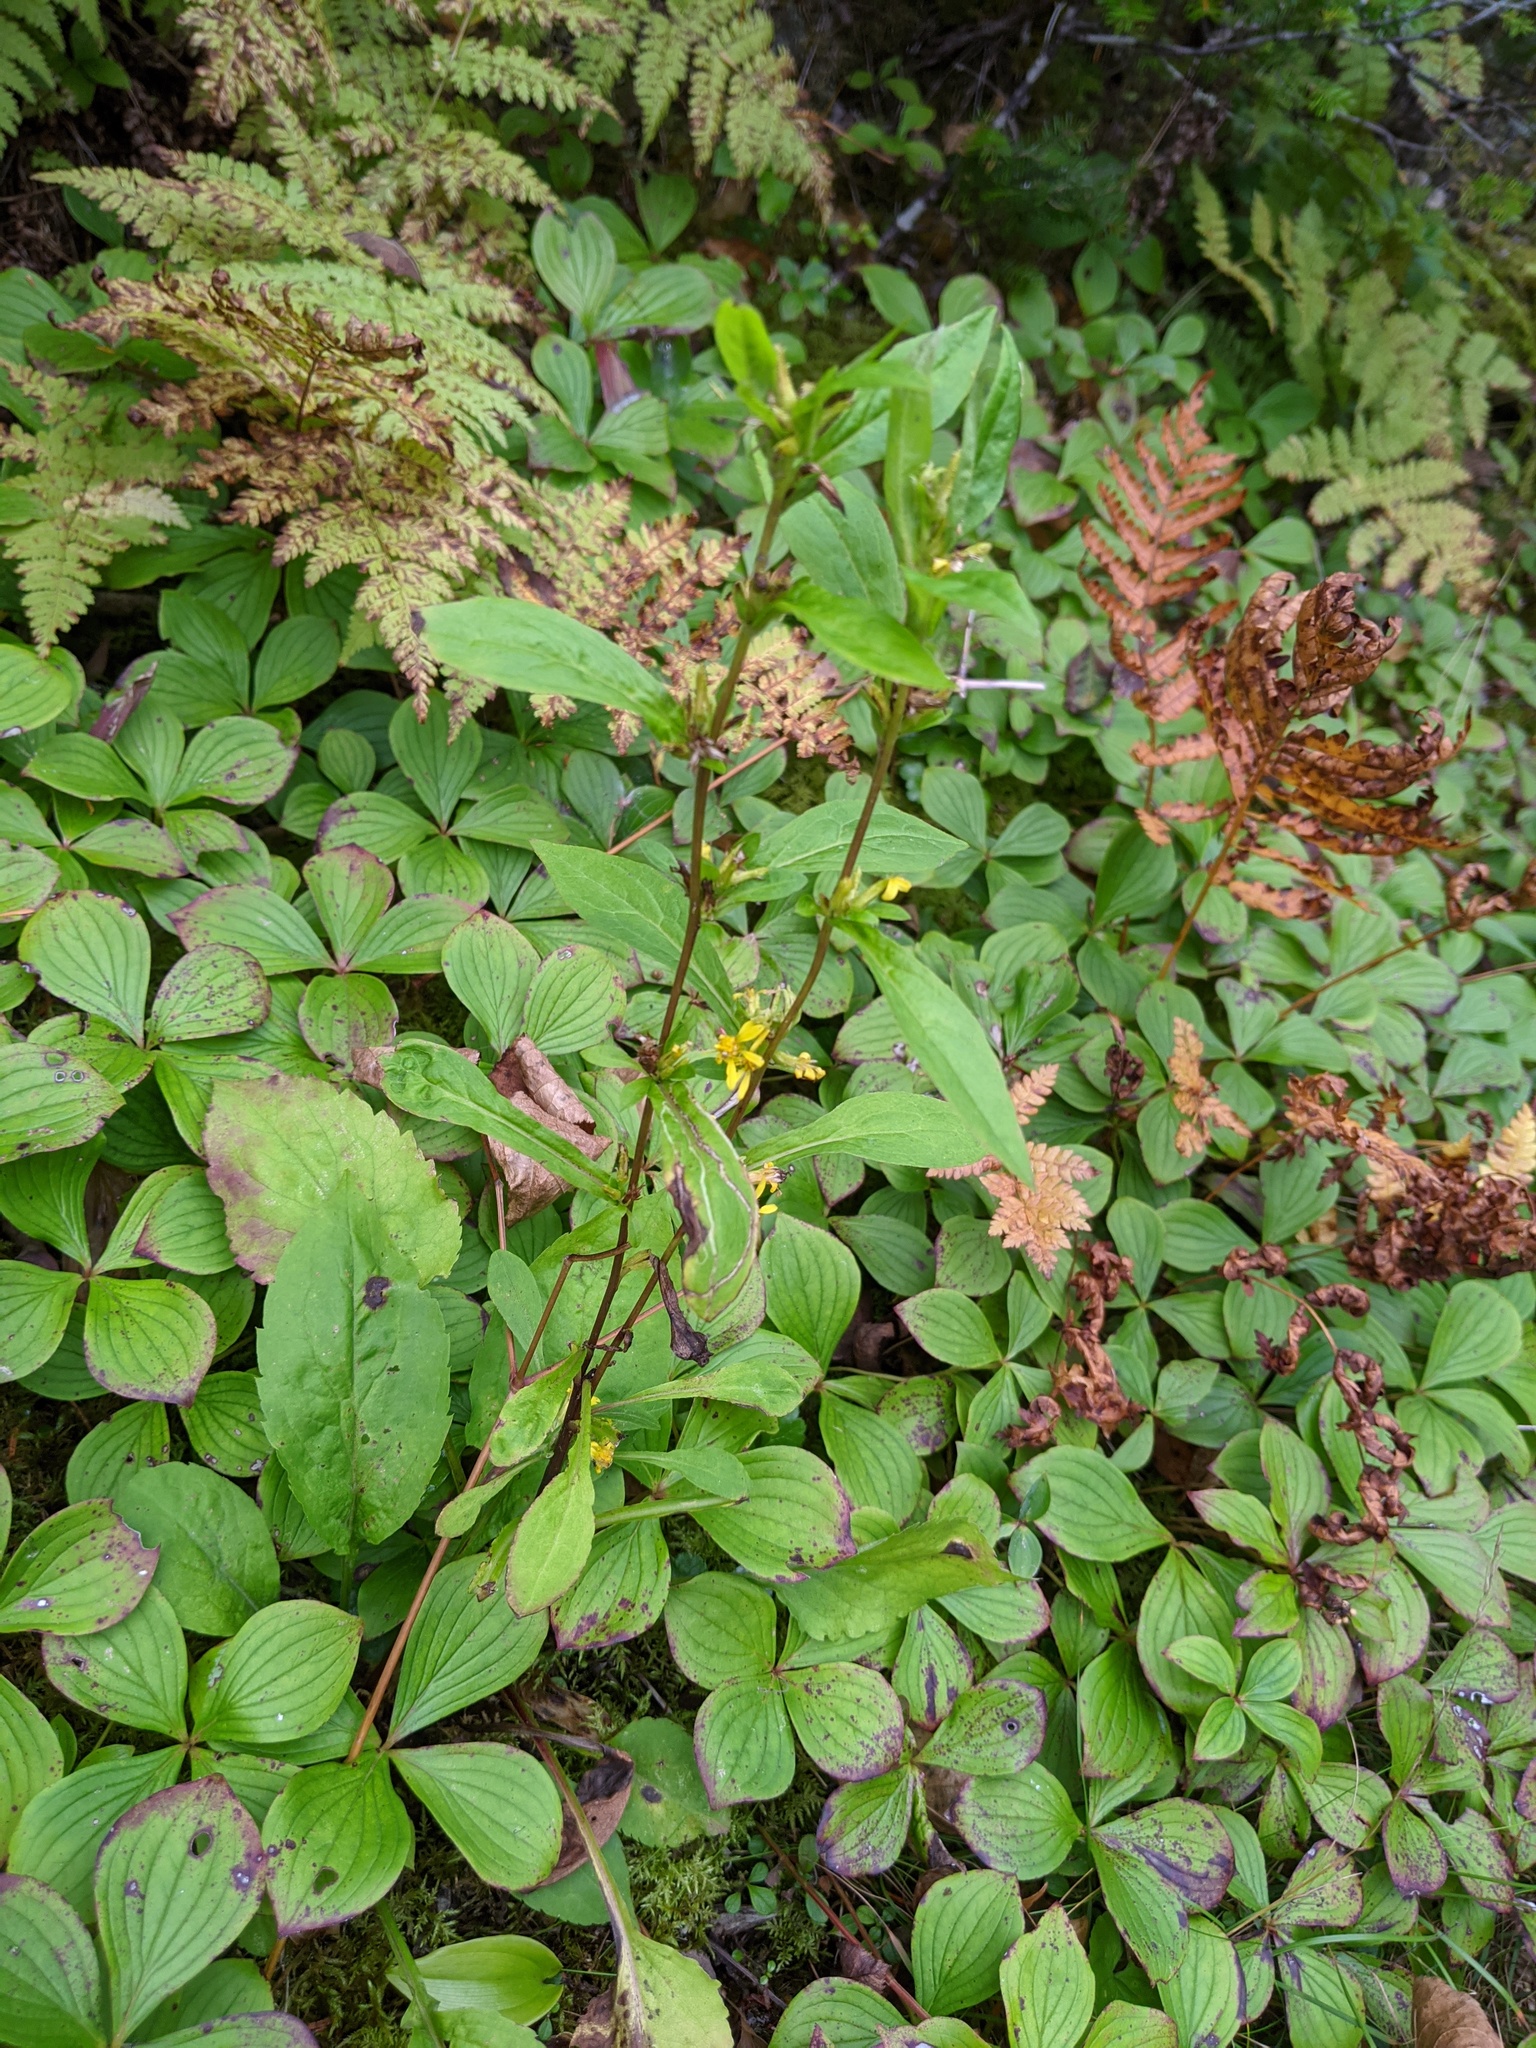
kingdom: Plantae
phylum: Tracheophyta
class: Magnoliopsida
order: Asterales
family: Asteraceae
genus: Solidago
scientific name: Solidago puberula
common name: Downy goldenrod
